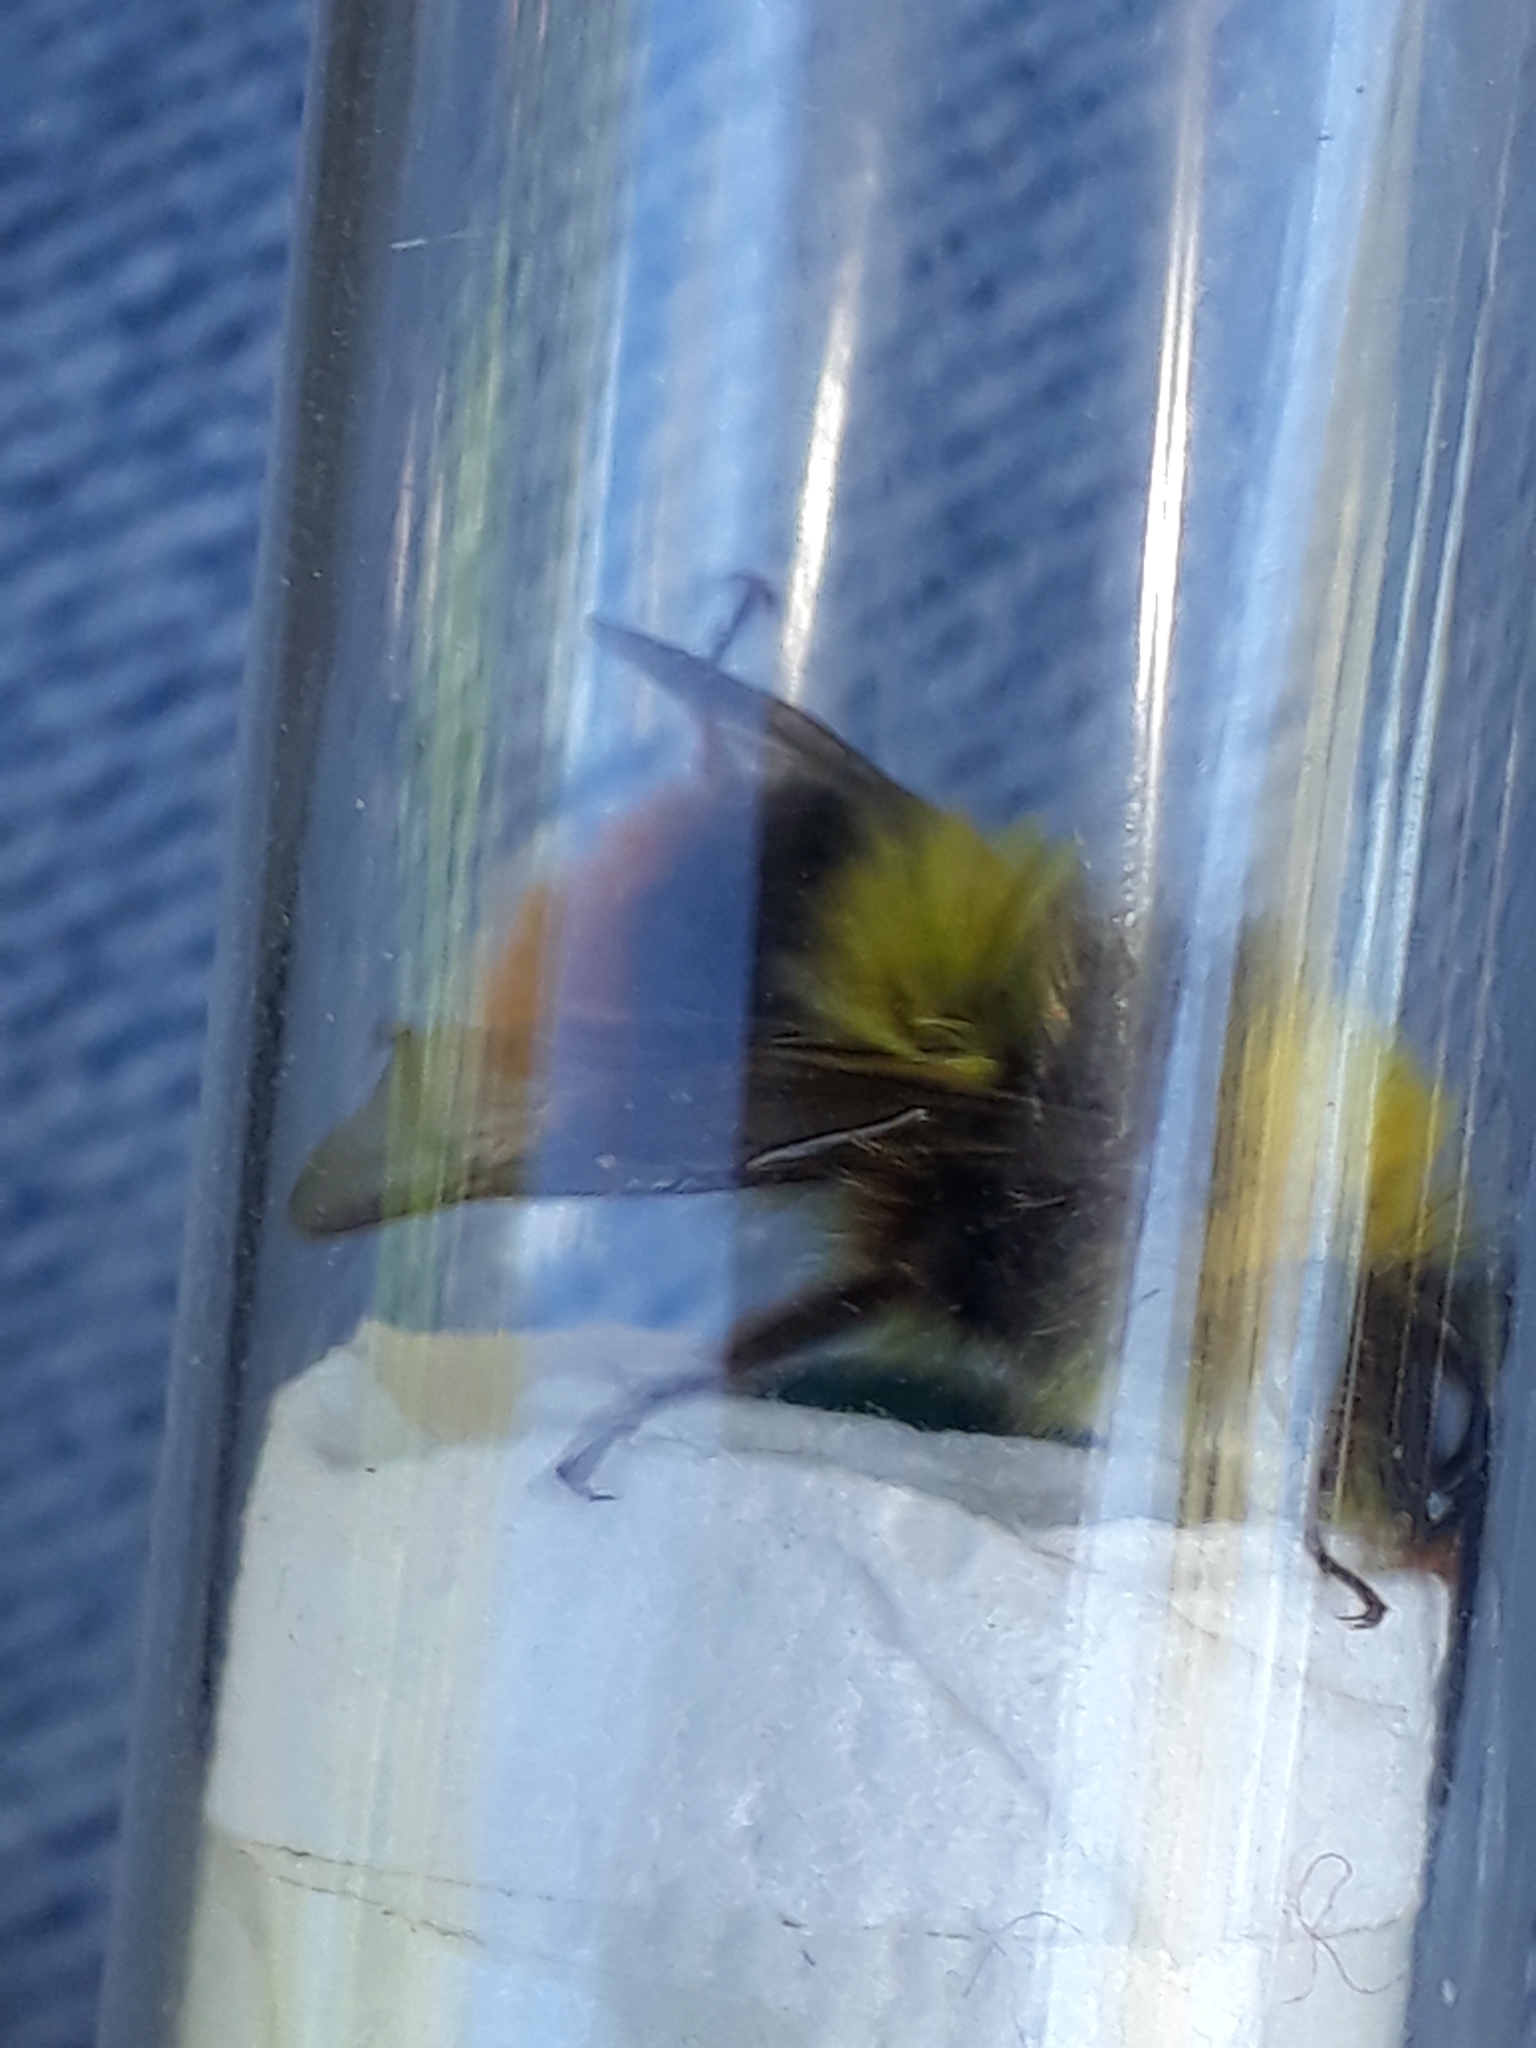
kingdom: Animalia
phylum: Arthropoda
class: Insecta
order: Hymenoptera
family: Apidae
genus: Bombus
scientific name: Bombus pratorum
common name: Early humble-bee
